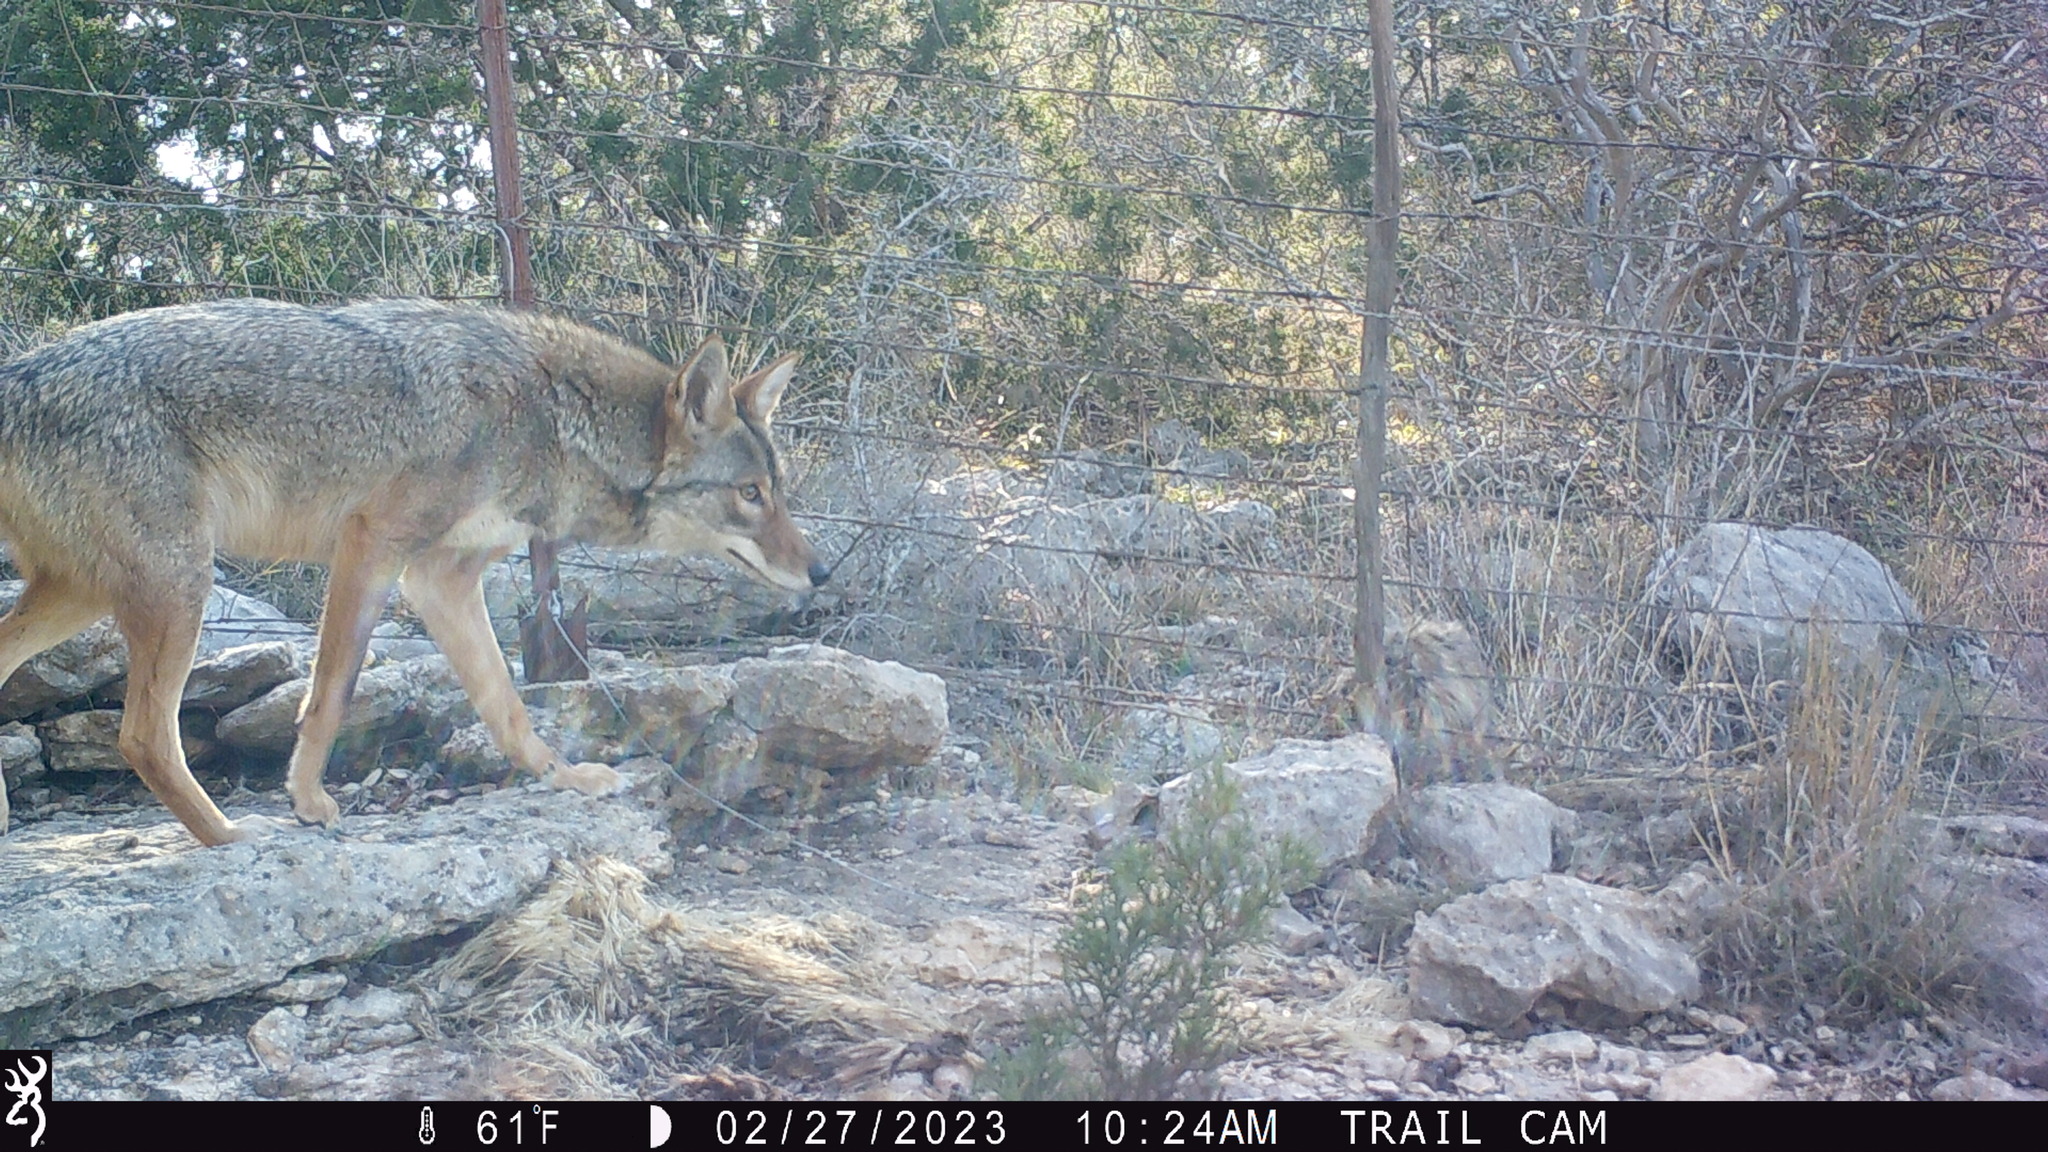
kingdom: Animalia
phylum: Chordata
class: Mammalia
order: Carnivora
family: Canidae
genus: Canis
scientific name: Canis latrans
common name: Coyote
